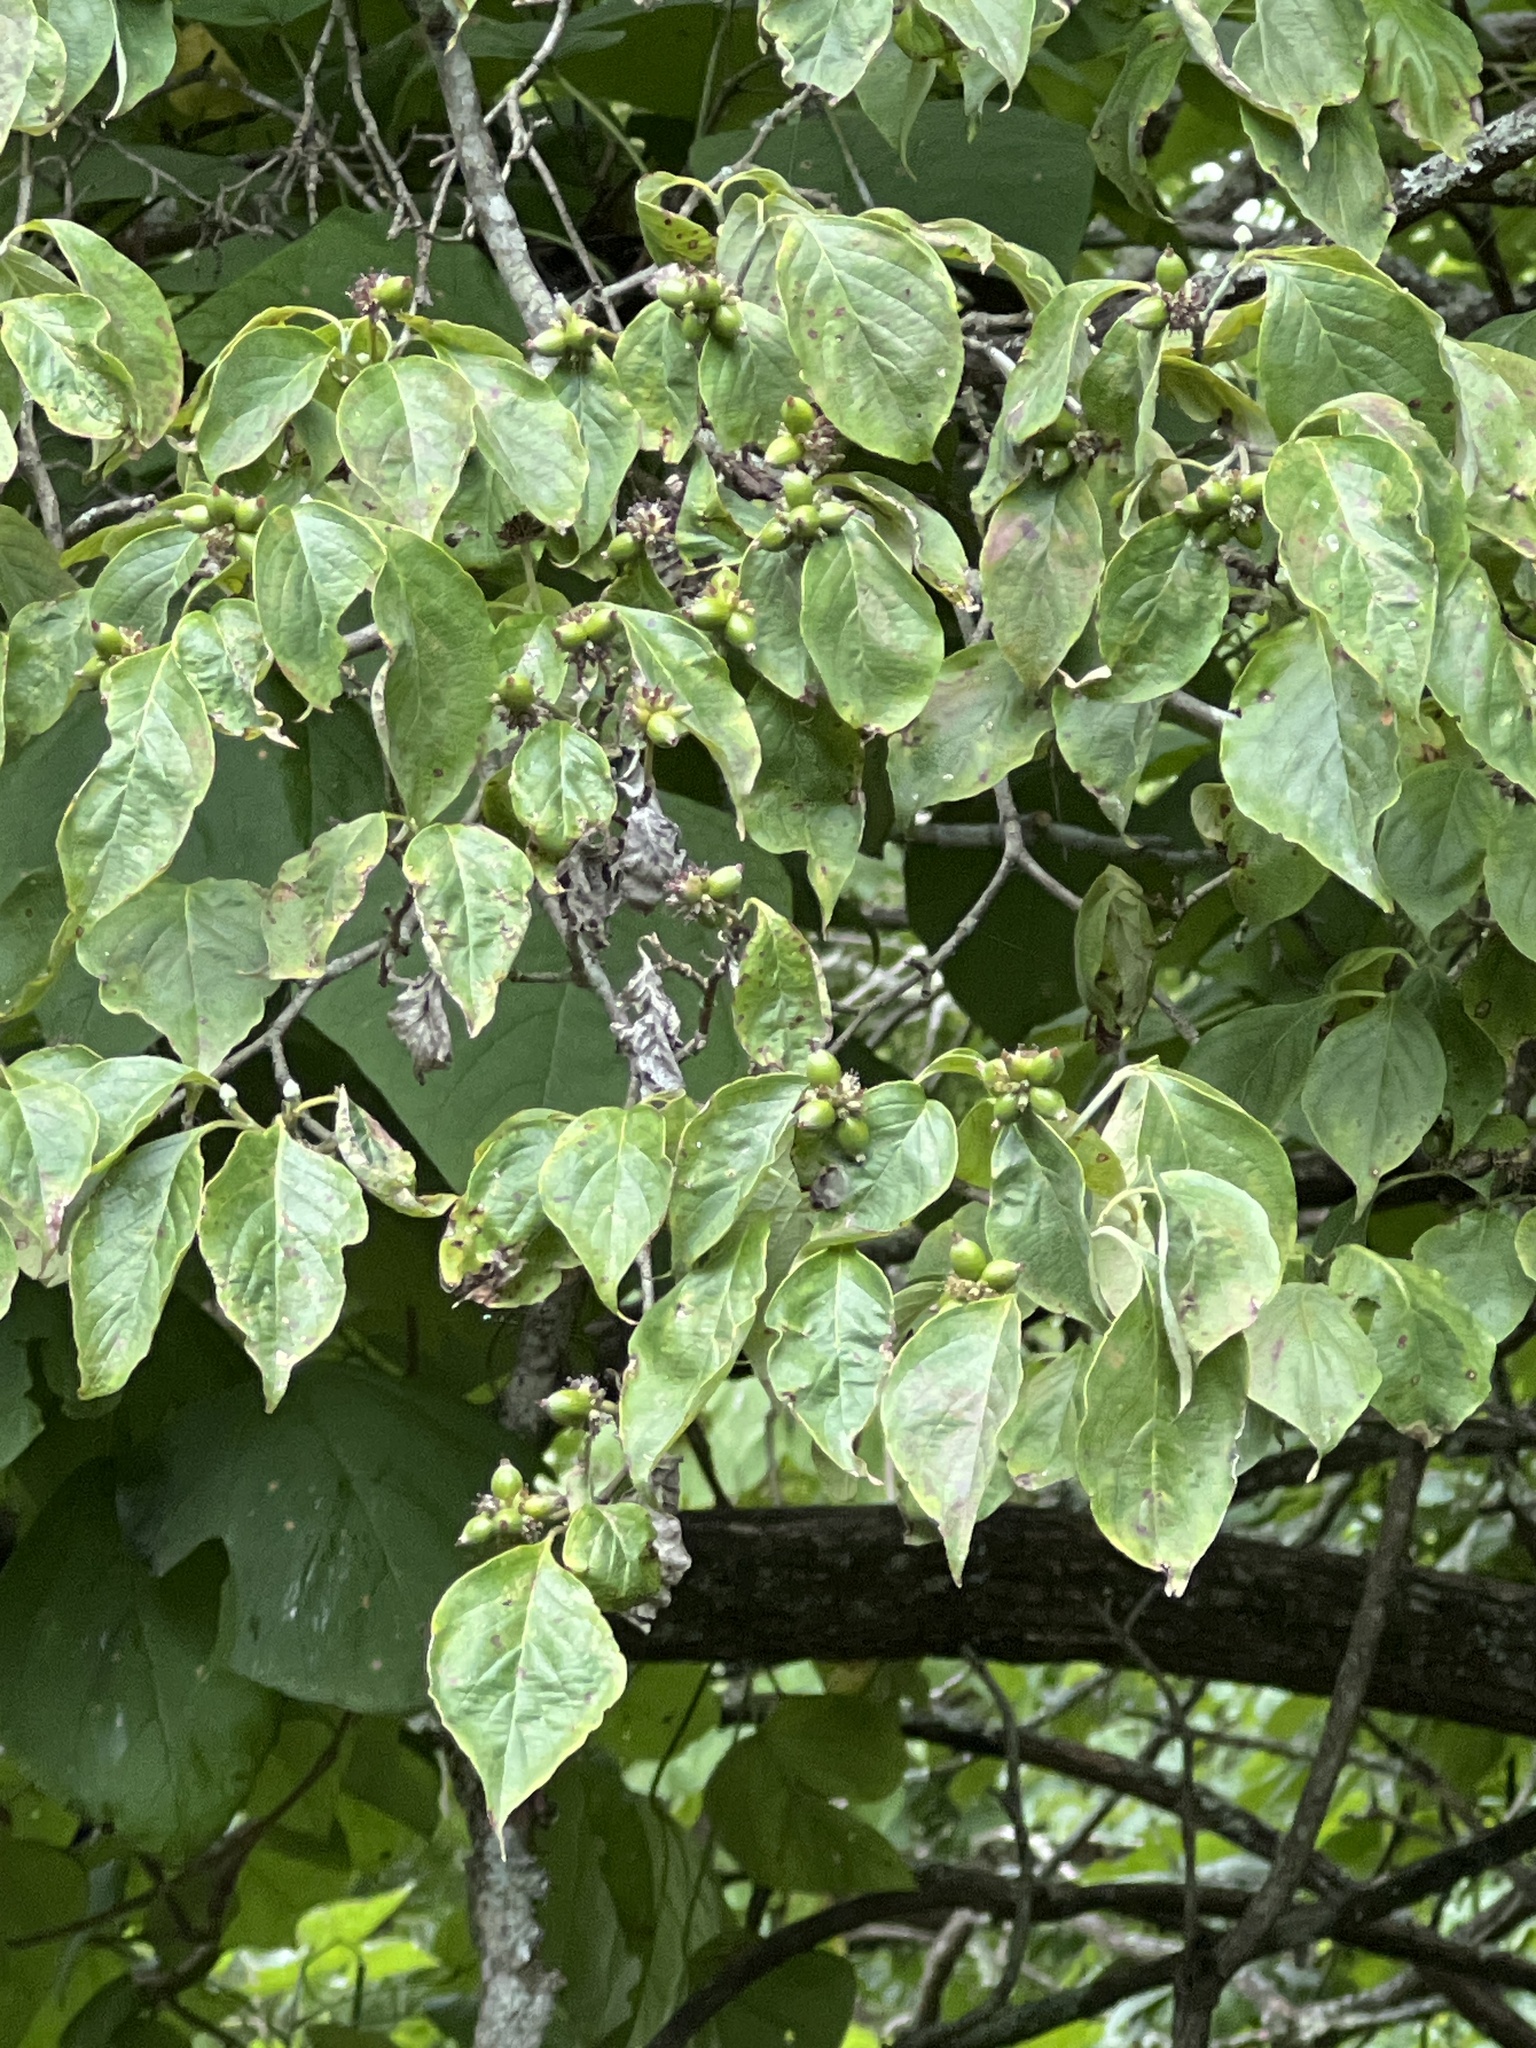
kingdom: Plantae
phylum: Tracheophyta
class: Magnoliopsida
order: Cornales
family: Cornaceae
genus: Cornus
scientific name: Cornus florida
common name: Flowering dogwood
